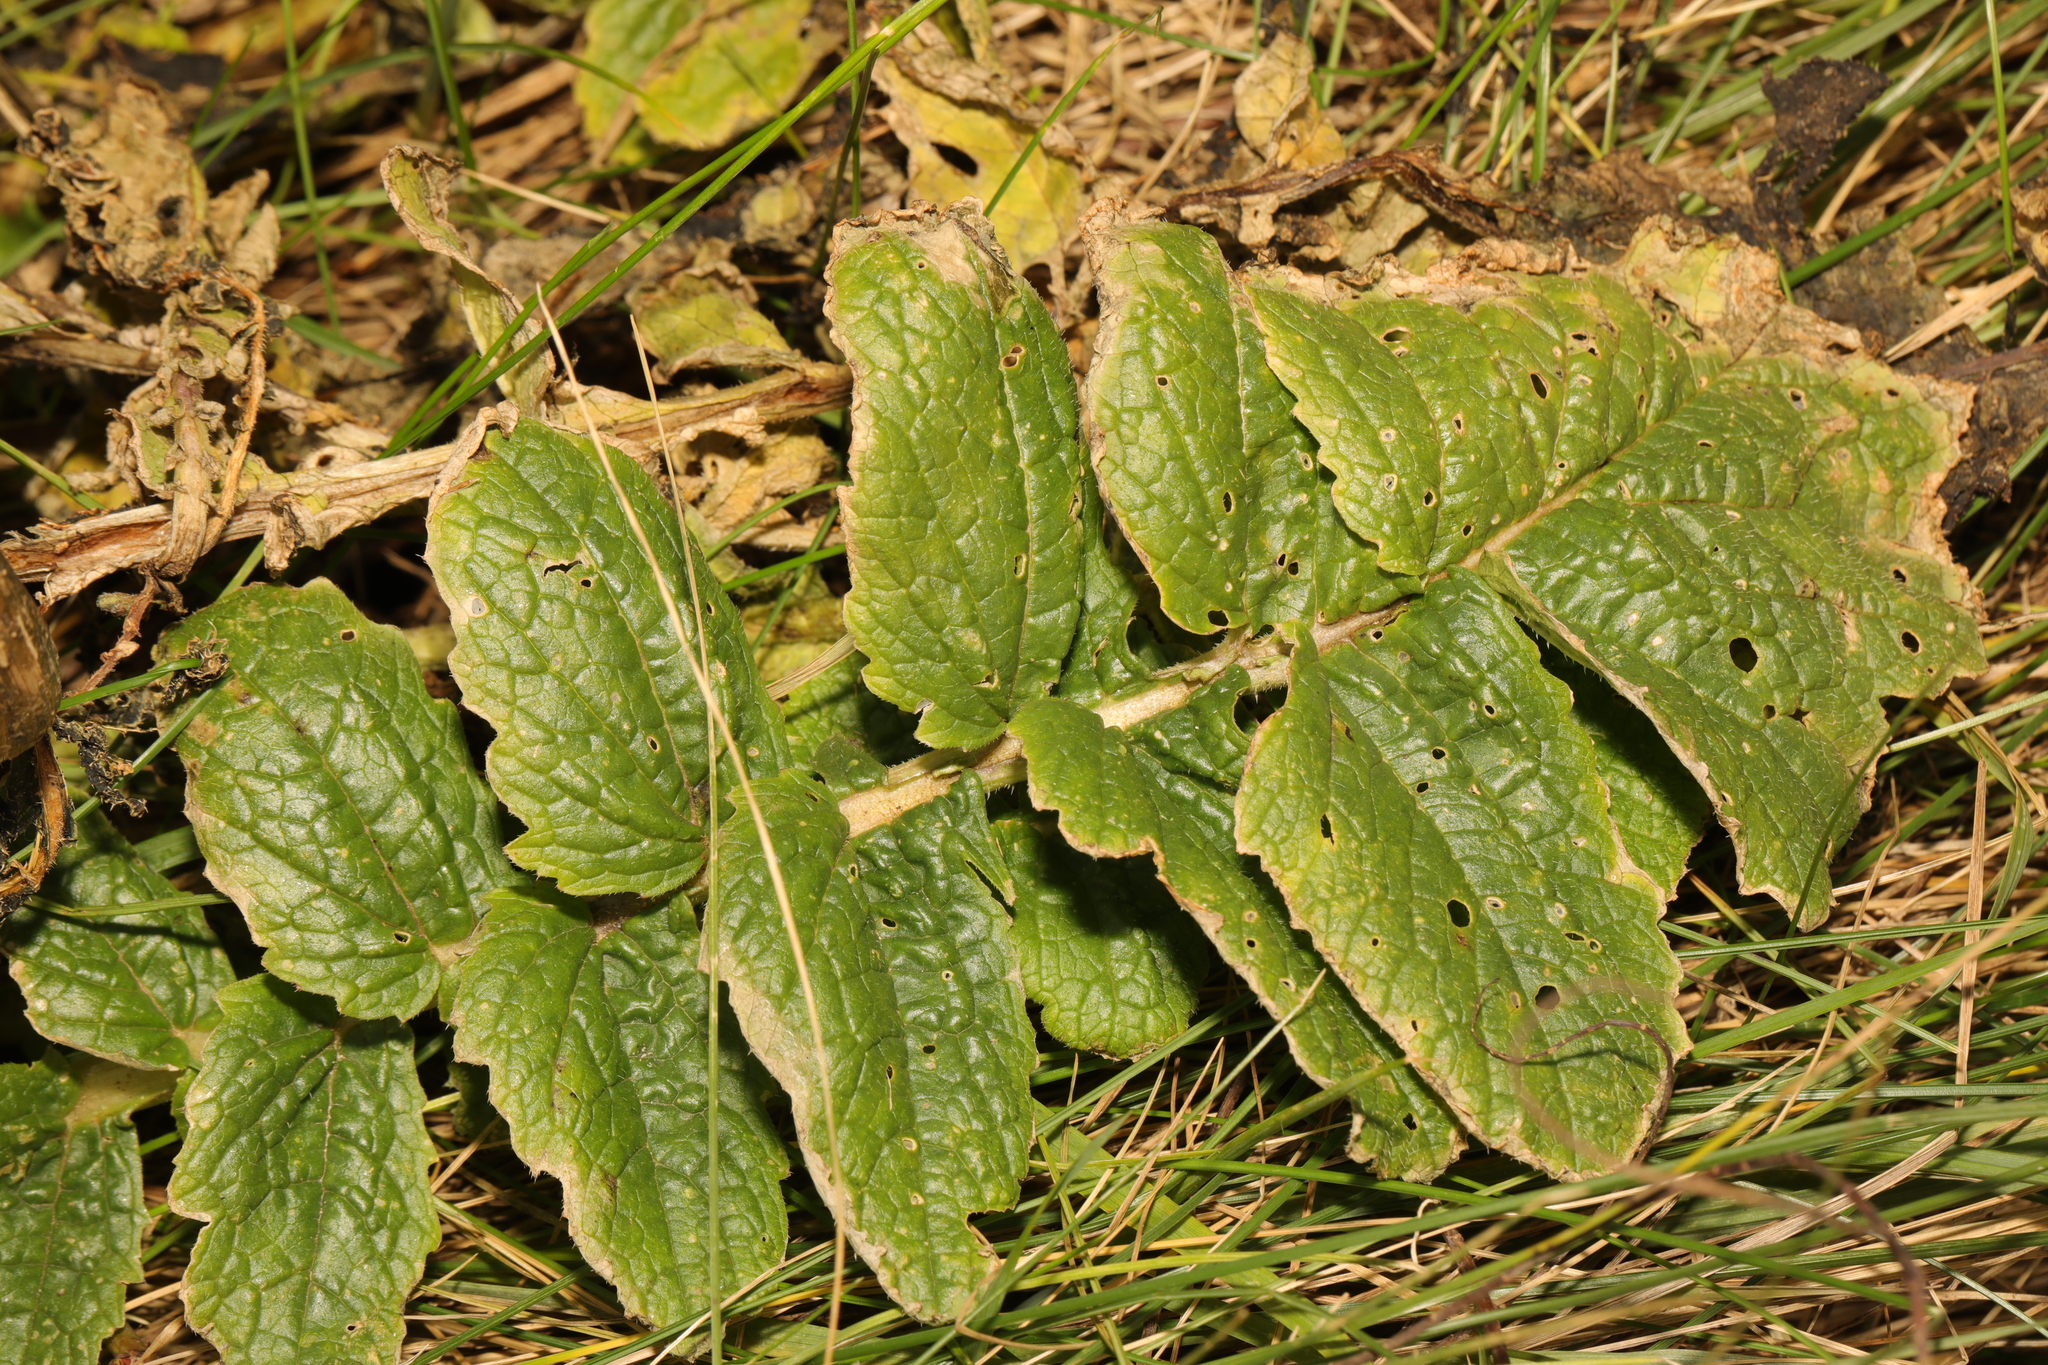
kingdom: Plantae
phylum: Tracheophyta
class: Magnoliopsida
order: Brassicales
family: Brassicaceae
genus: Raphanus
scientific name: Raphanus raphanistrum
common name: Wild radish
